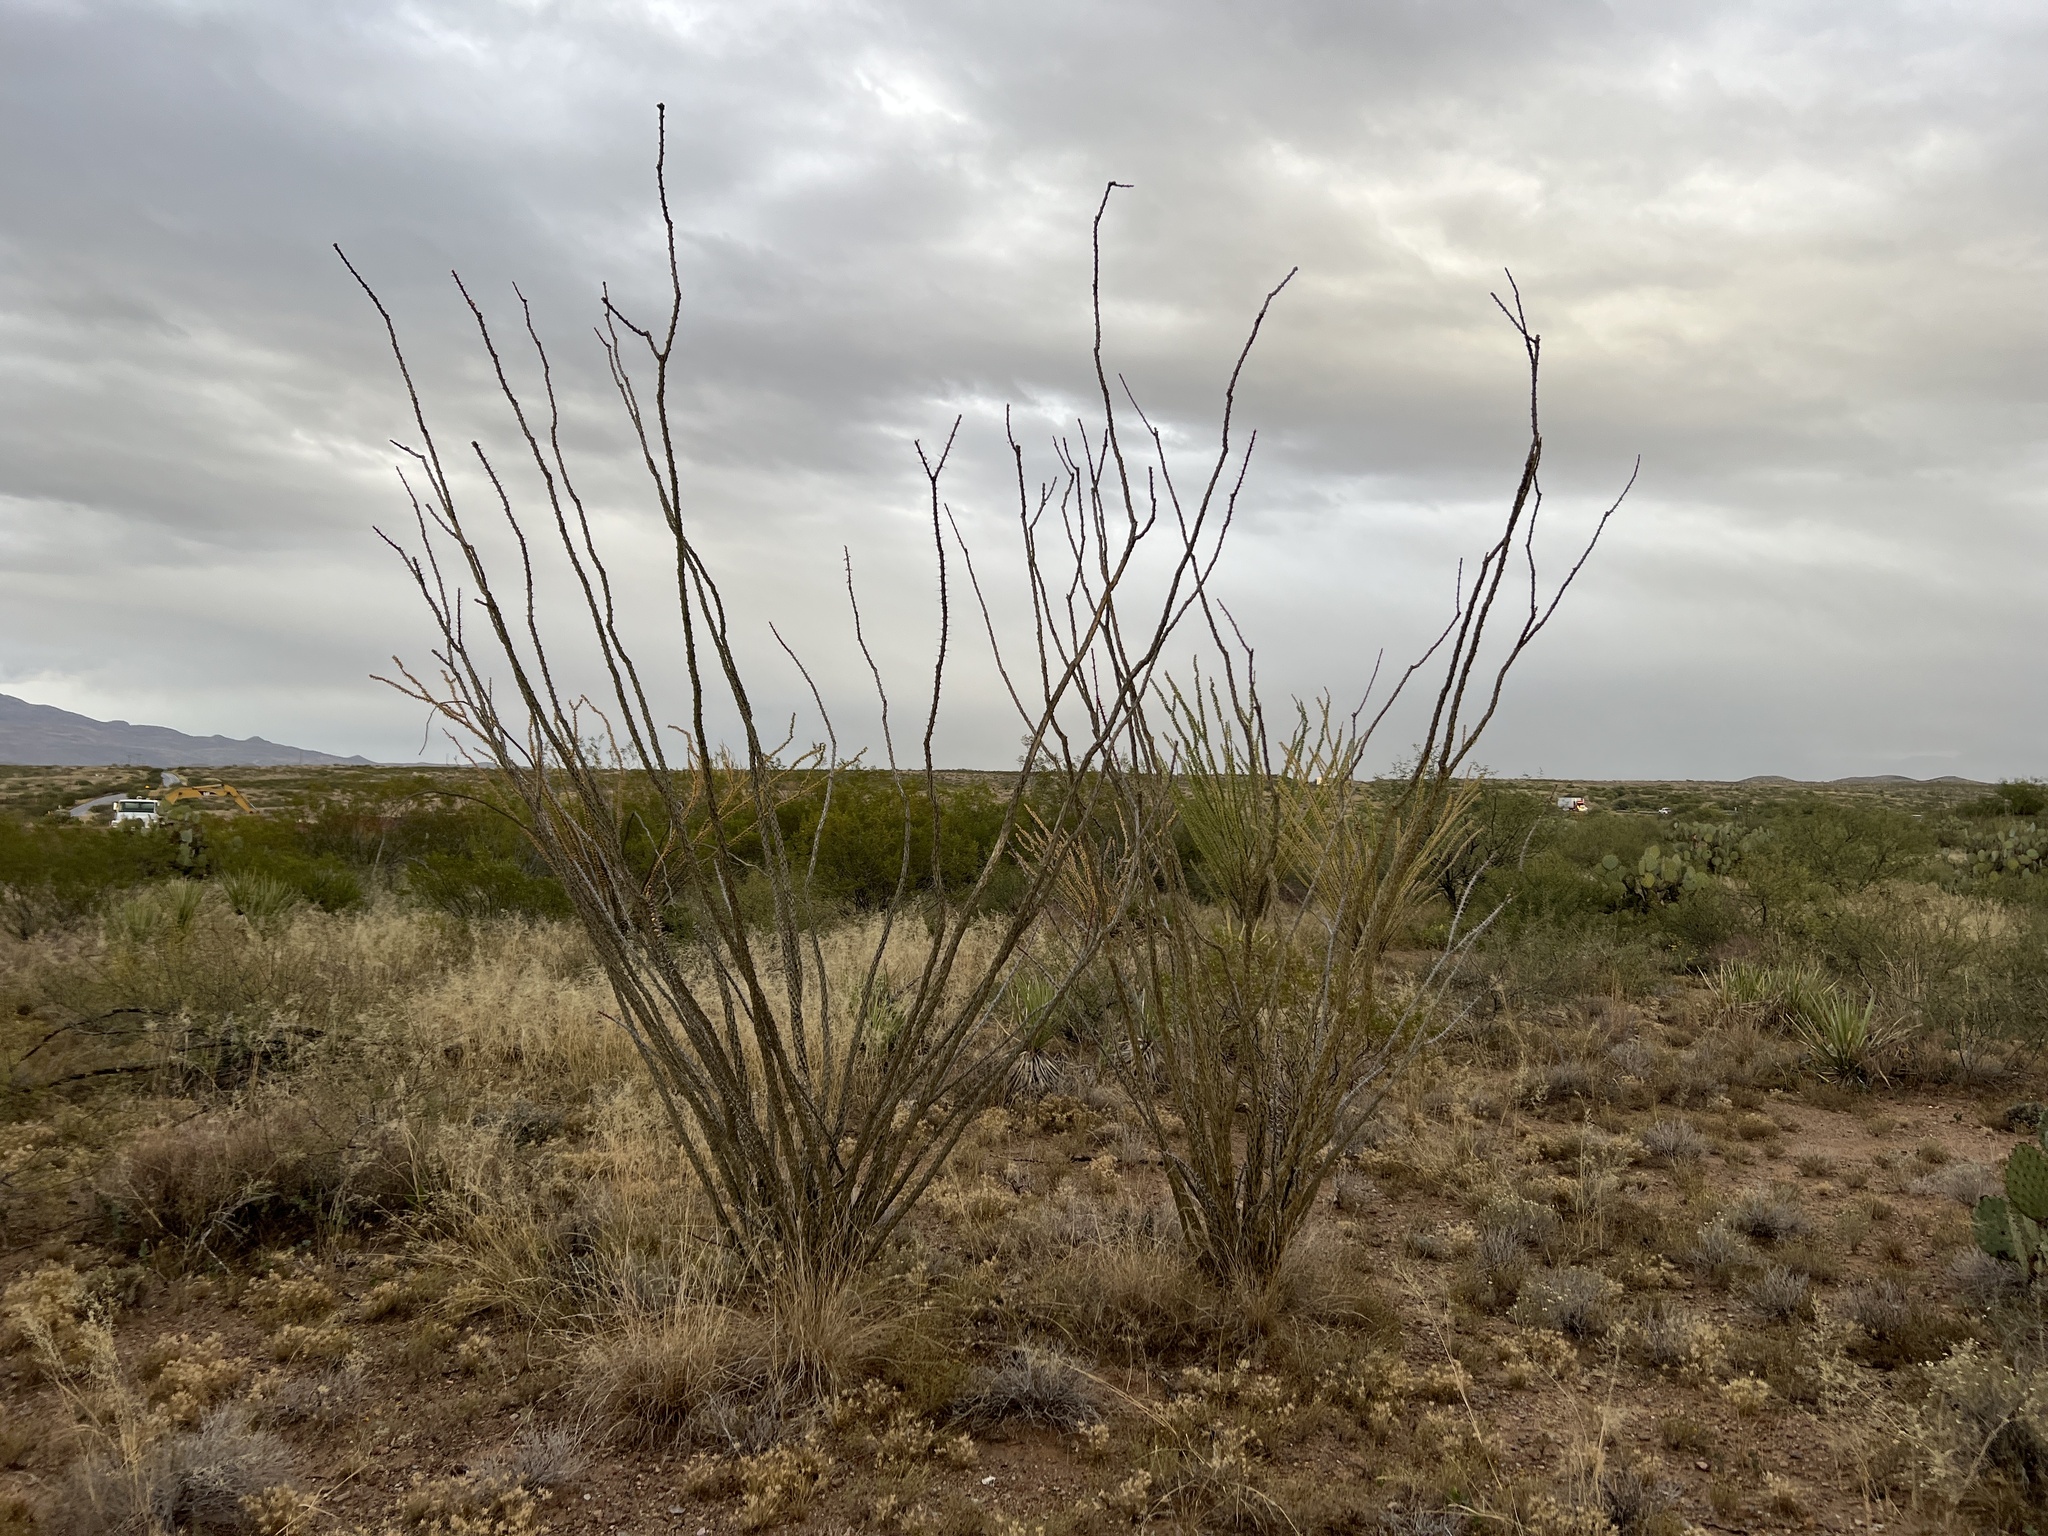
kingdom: Plantae
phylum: Tracheophyta
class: Magnoliopsida
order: Ericales
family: Fouquieriaceae
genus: Fouquieria
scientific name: Fouquieria splendens
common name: Vine-cactus
